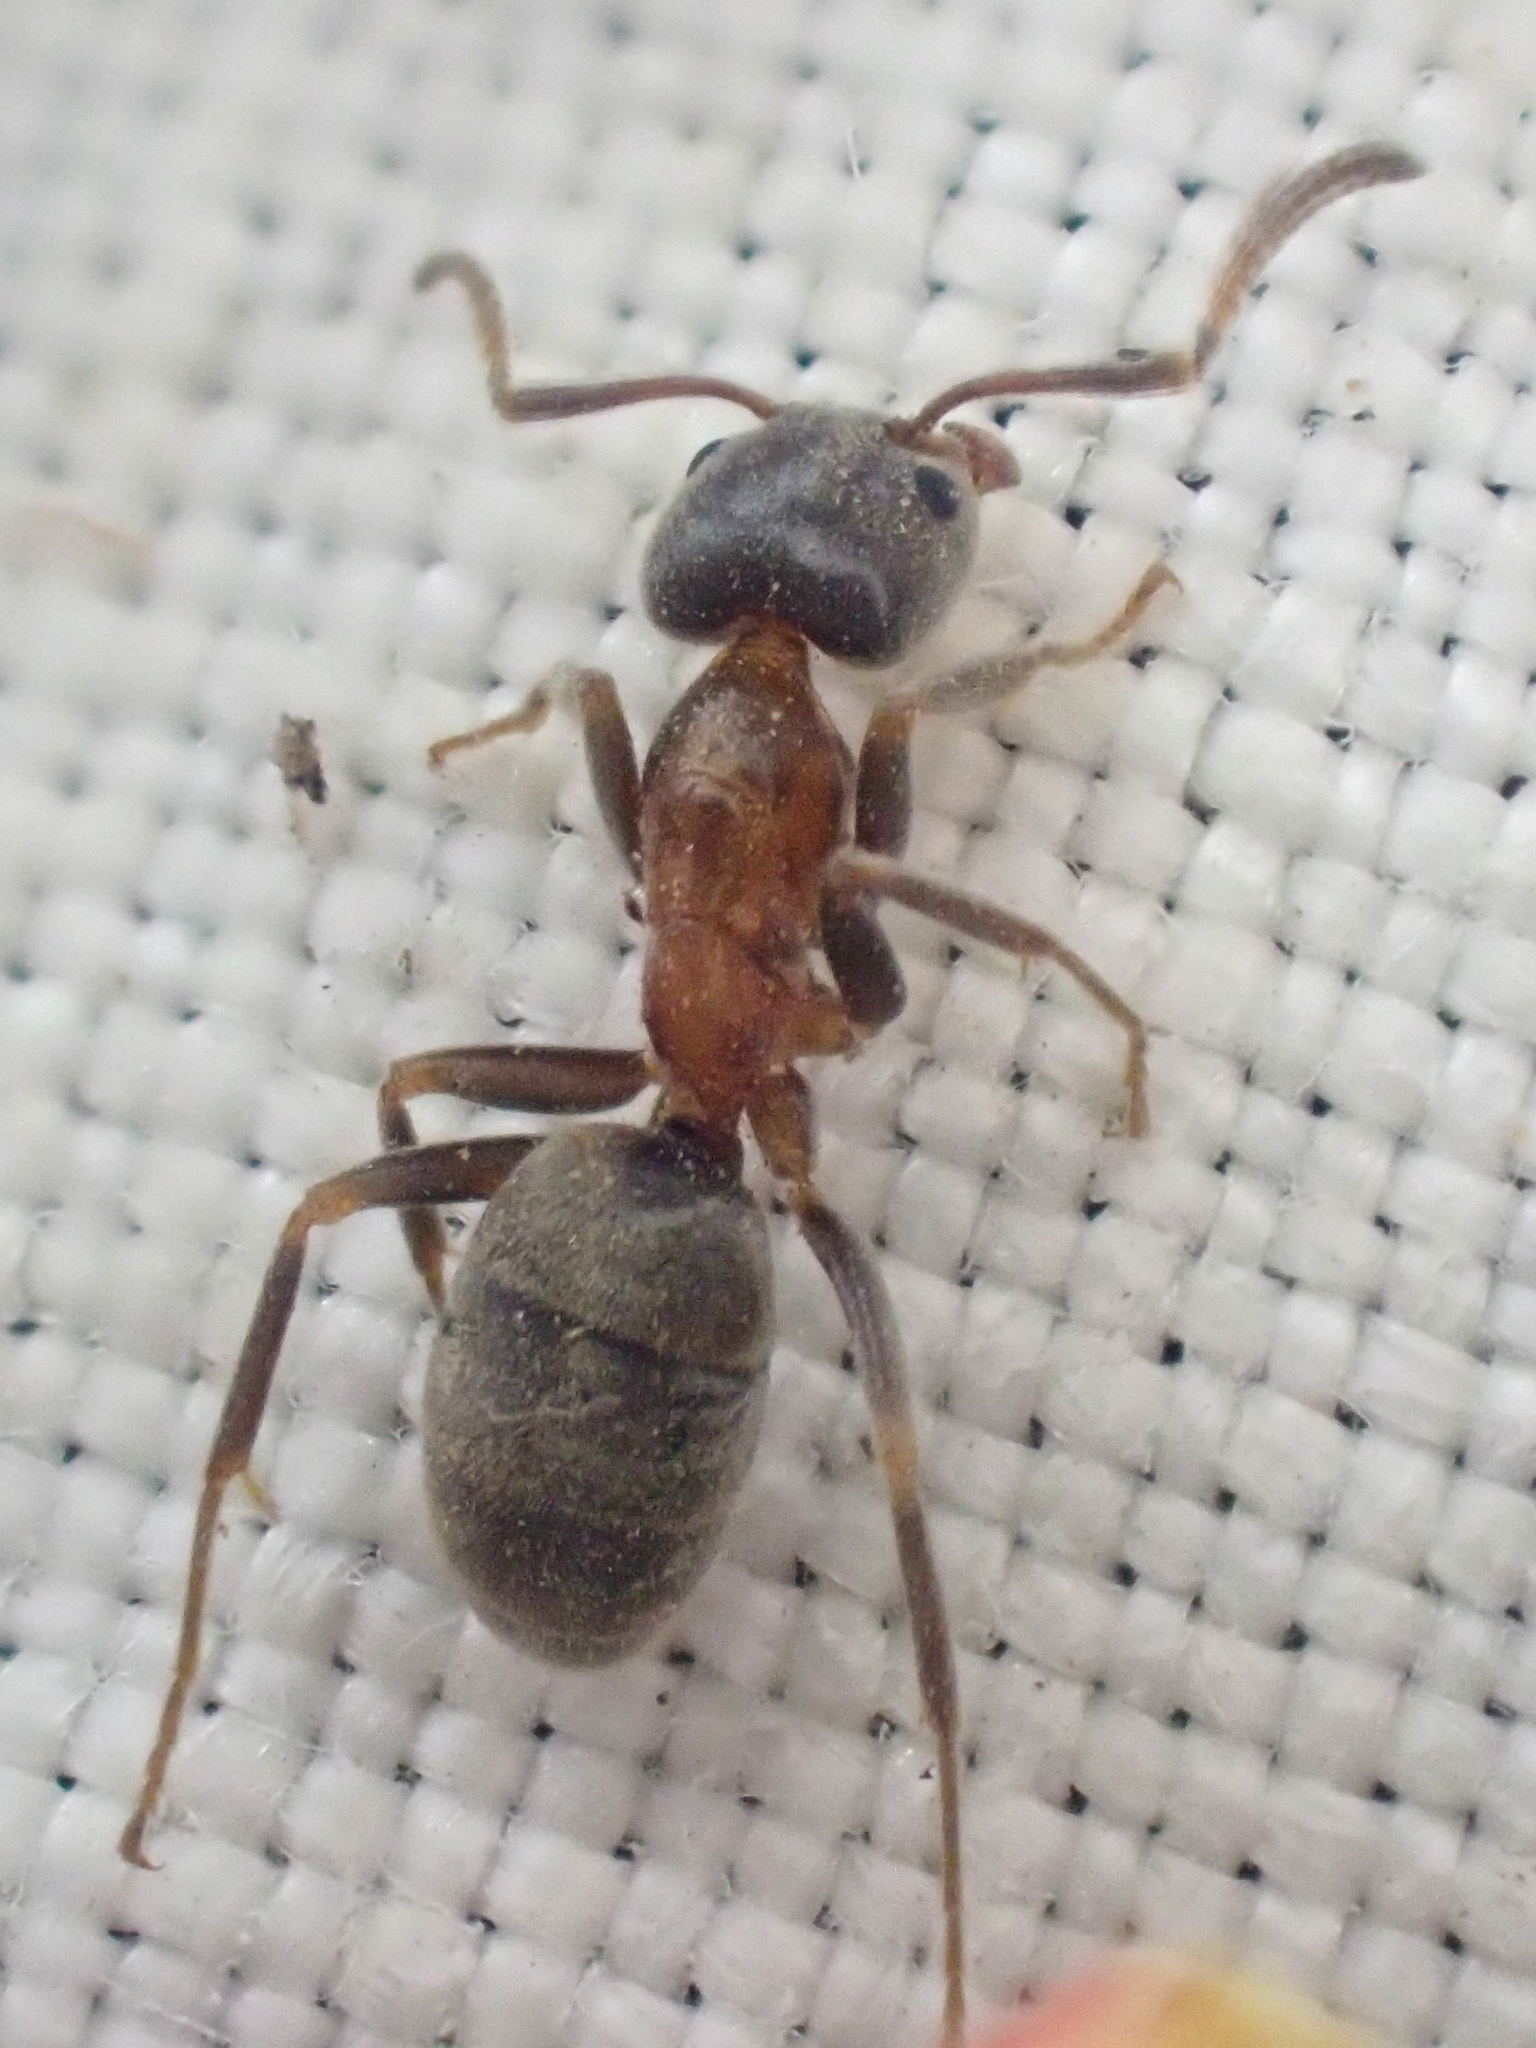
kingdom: Animalia
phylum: Arthropoda
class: Insecta
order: Hymenoptera
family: Formicidae
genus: Liometopum
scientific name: Liometopum occidentale
